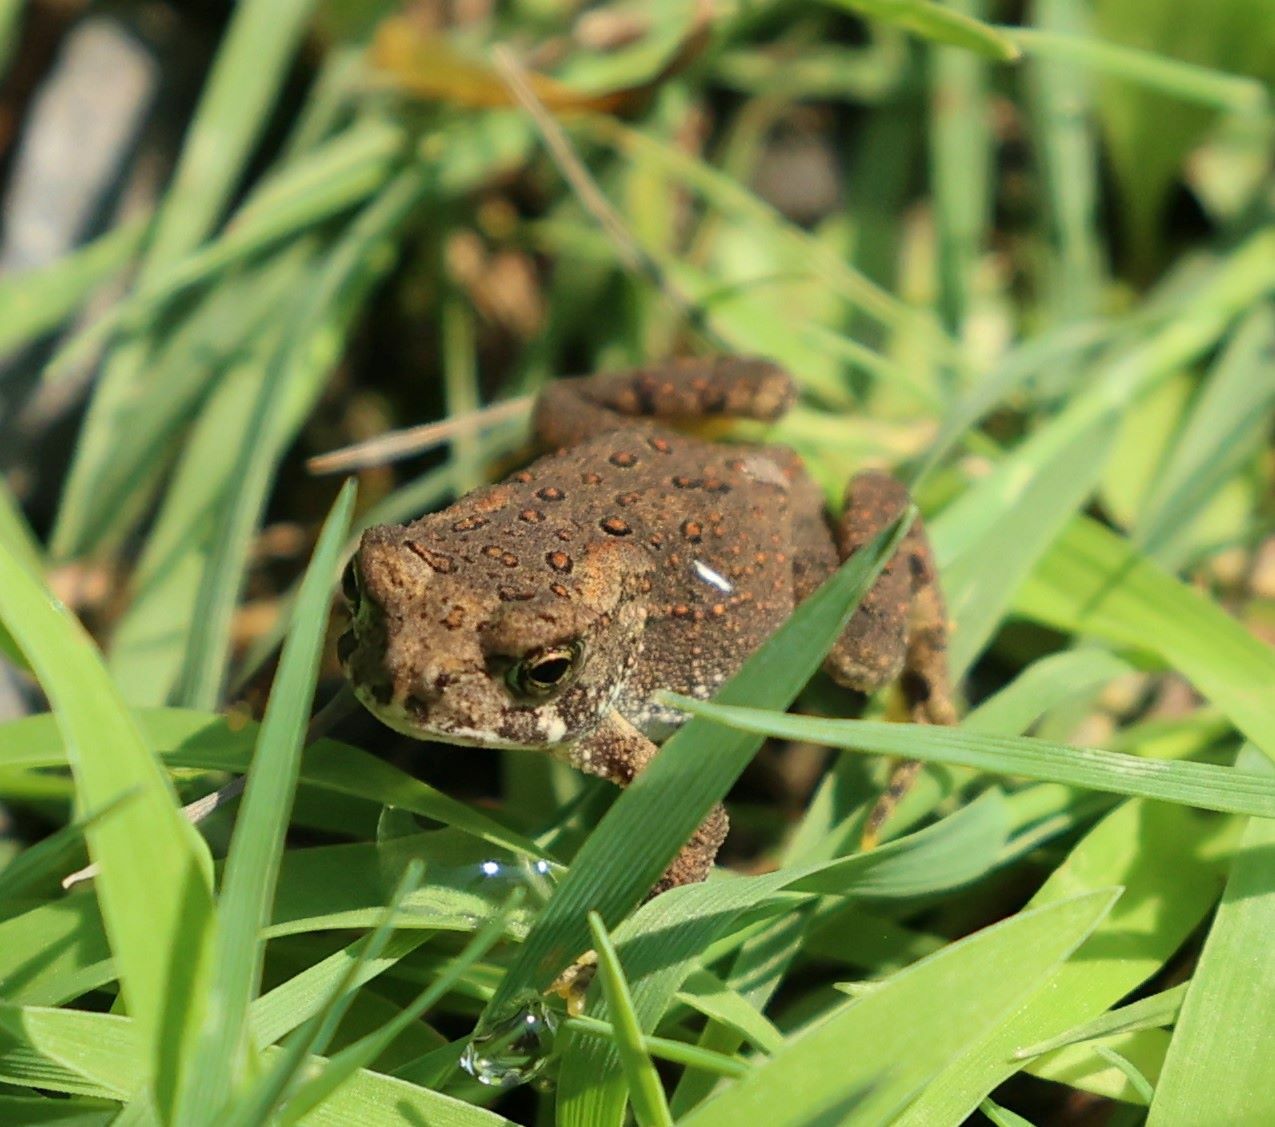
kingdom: Animalia
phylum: Chordata
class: Amphibia
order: Anura
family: Bufonidae
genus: Anaxyrus
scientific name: Anaxyrus americanus
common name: American toad
